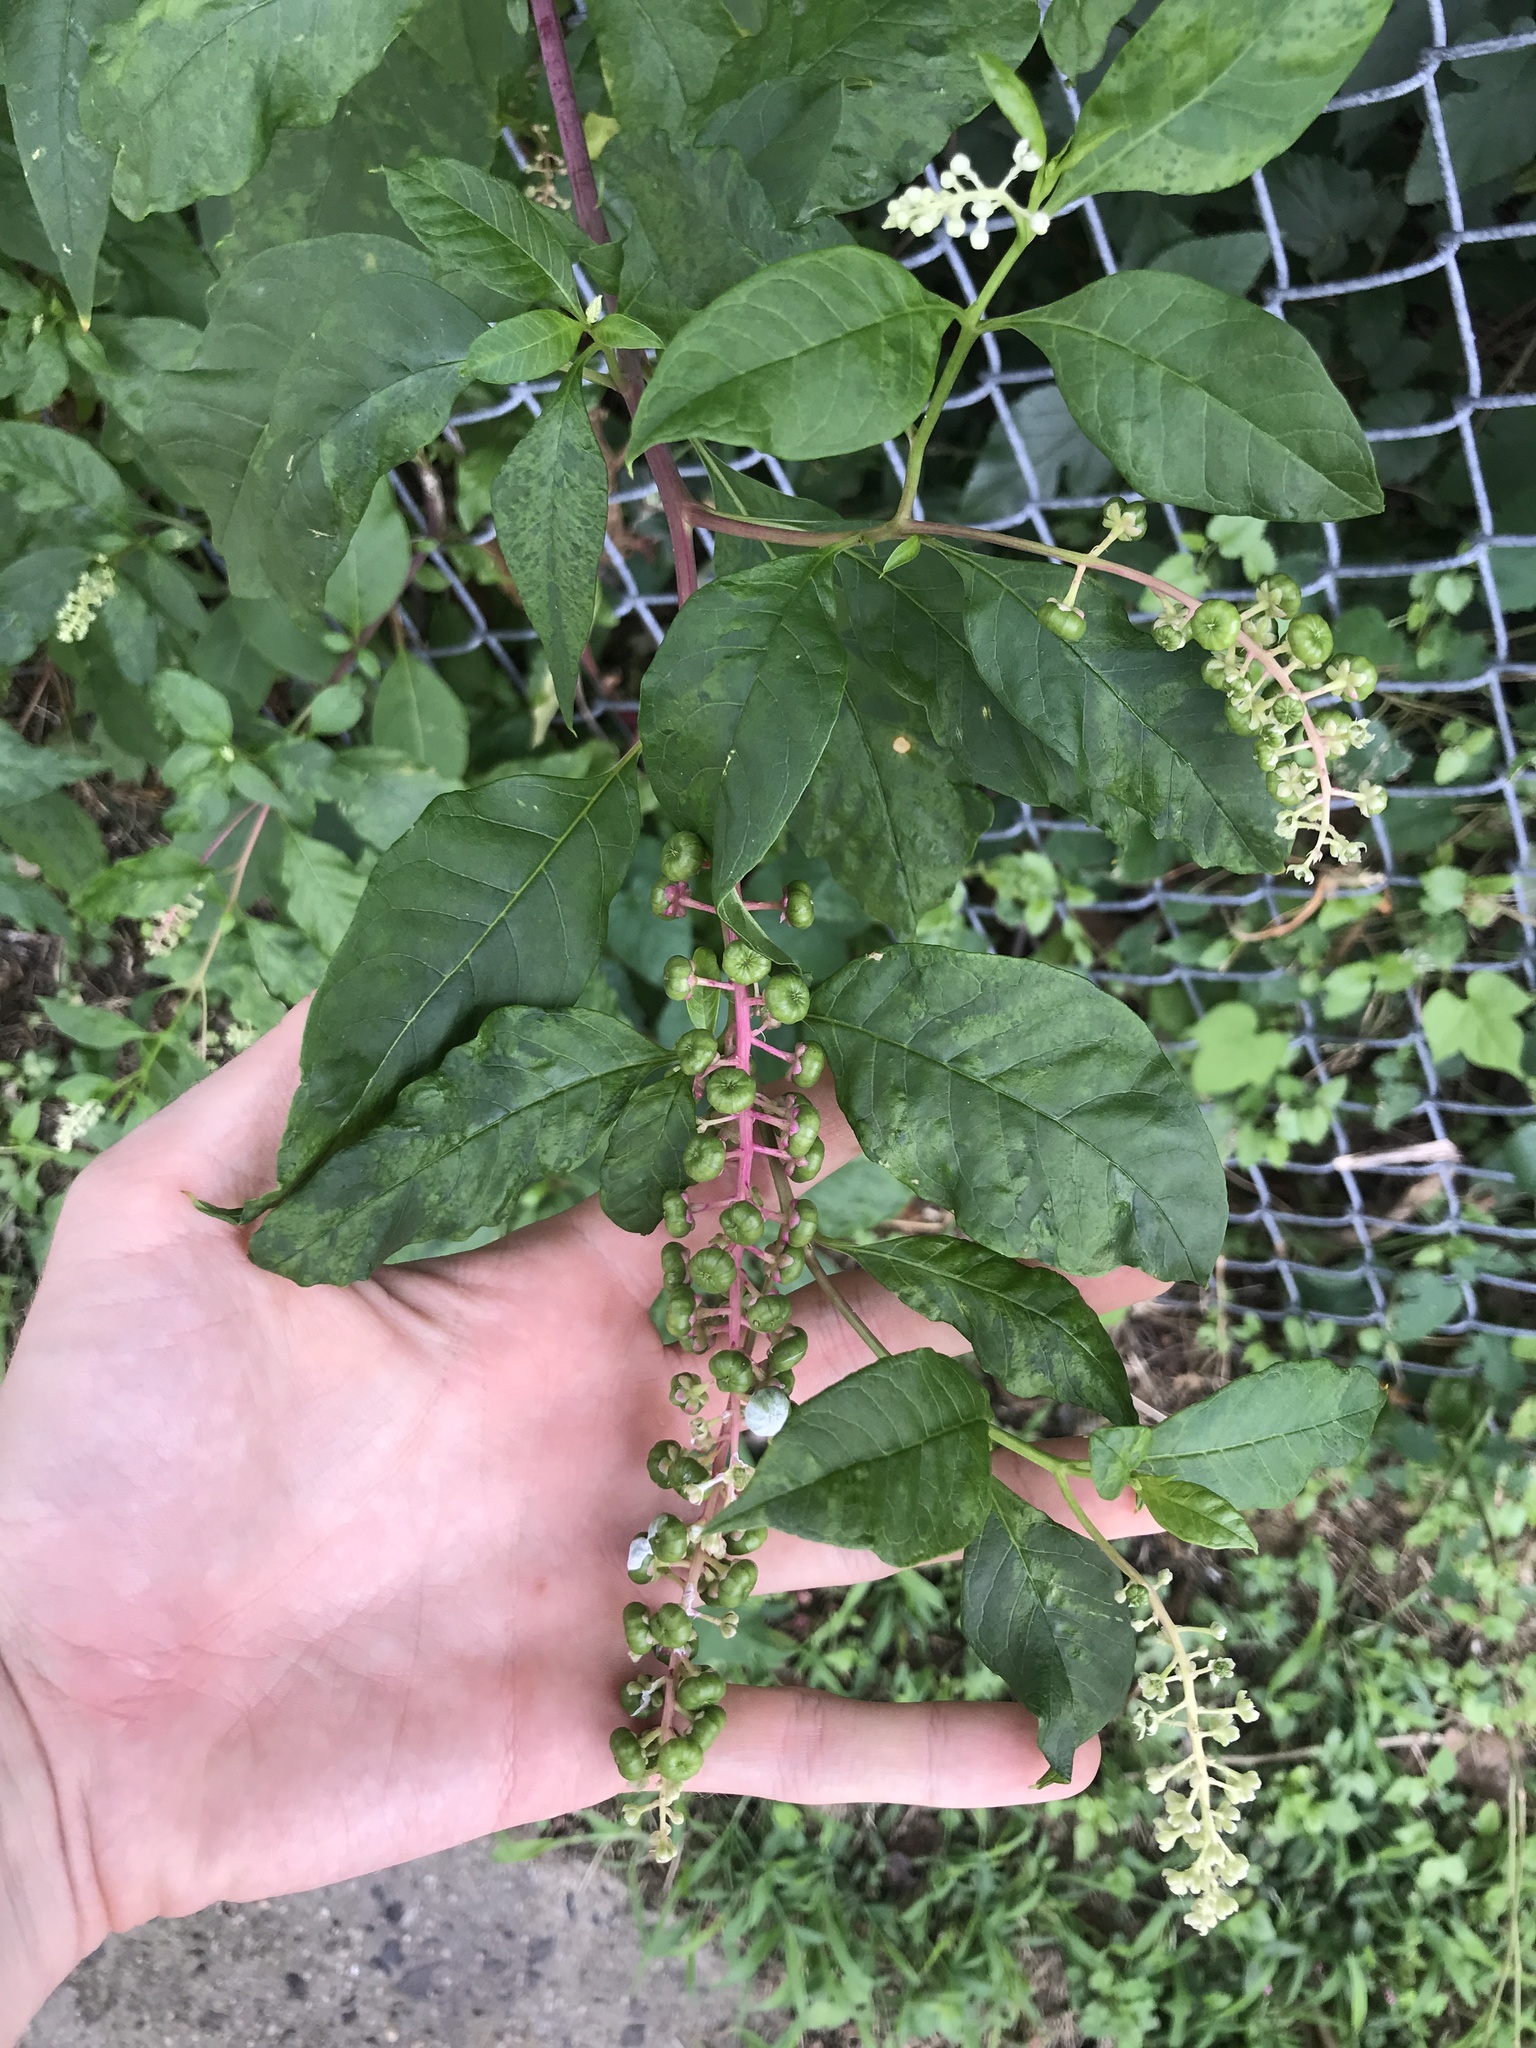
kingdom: Plantae
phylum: Tracheophyta
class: Magnoliopsida
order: Caryophyllales
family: Phytolaccaceae
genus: Phytolacca
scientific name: Phytolacca americana
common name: American pokeweed
